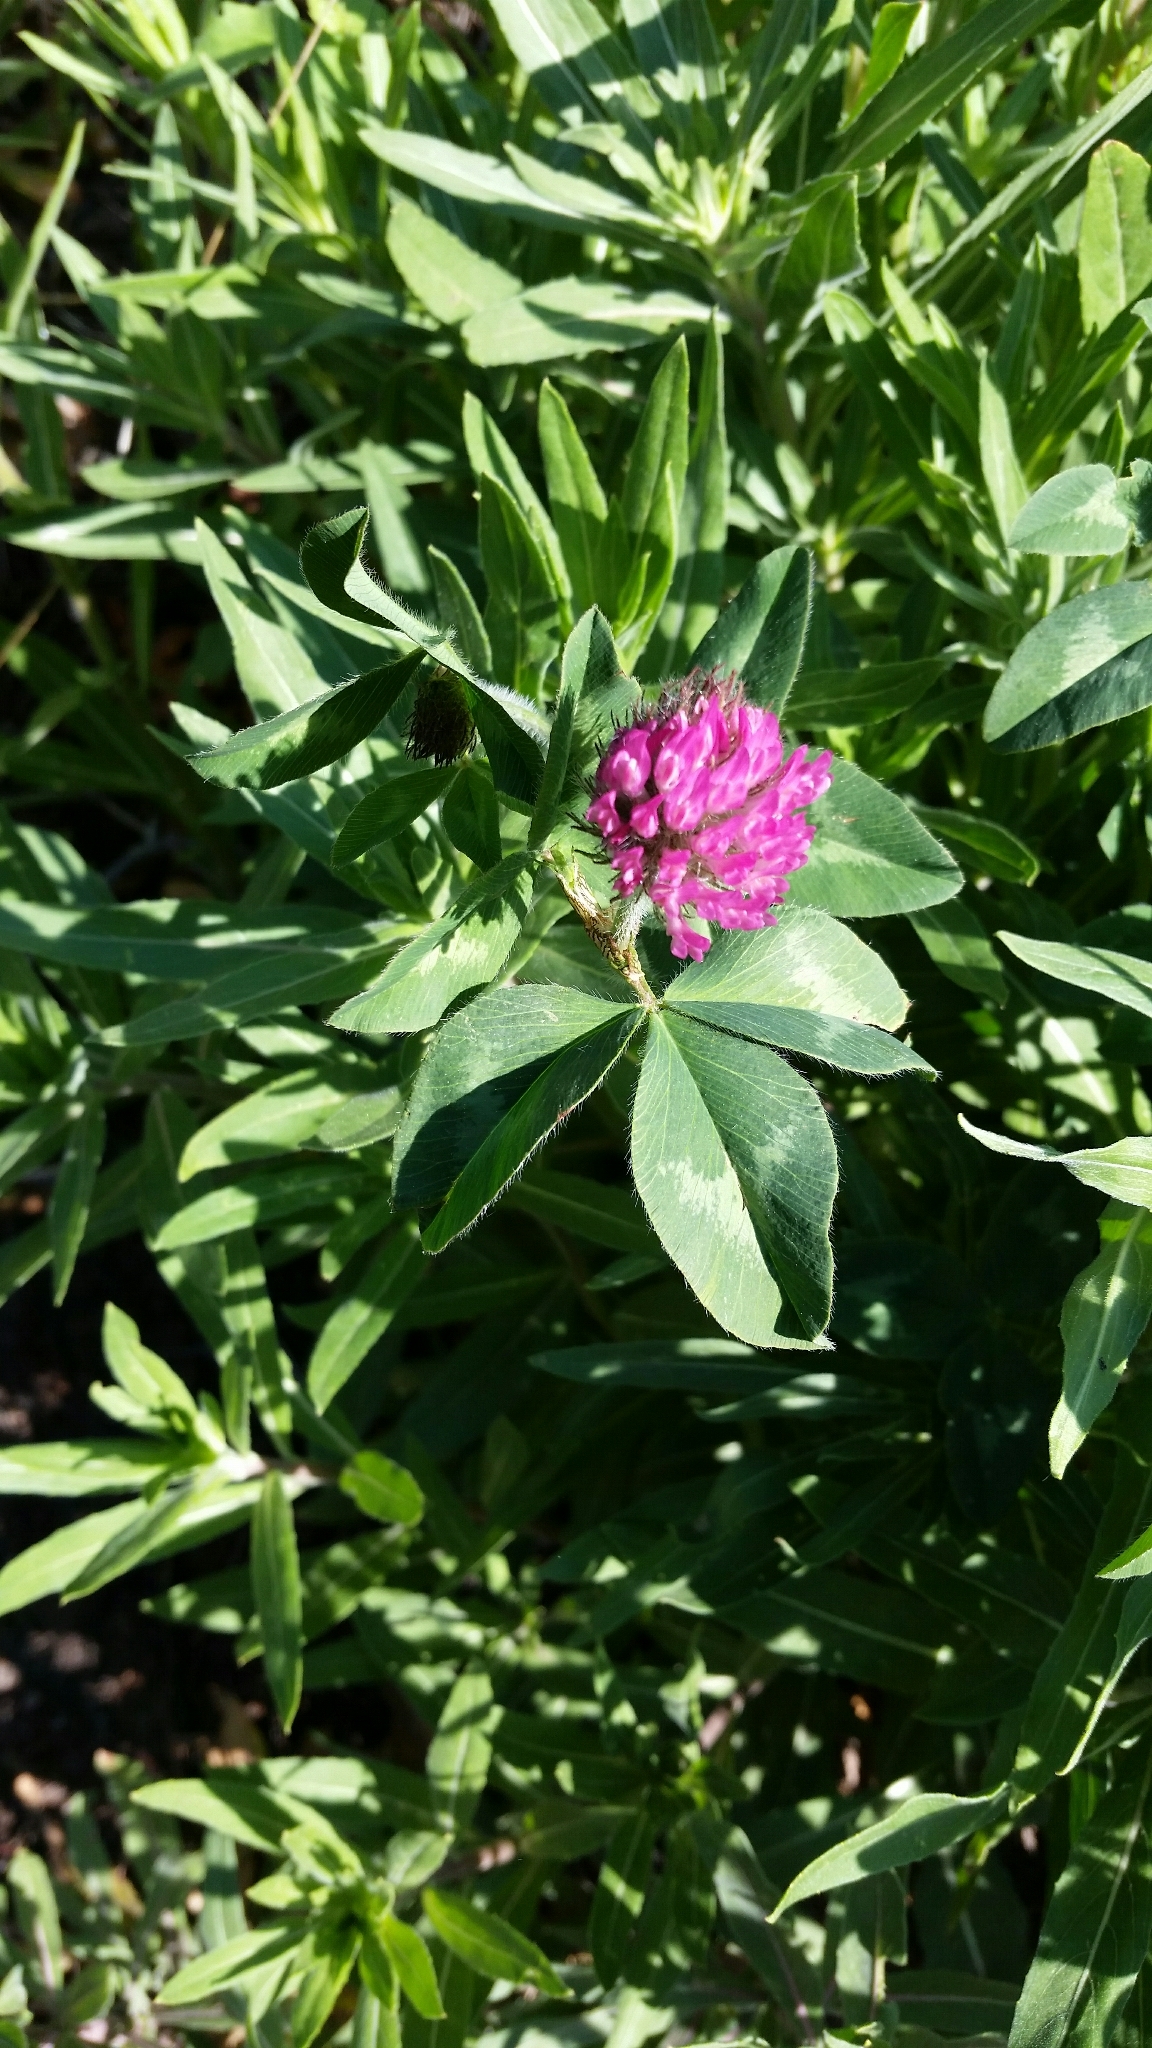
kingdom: Plantae
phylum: Tracheophyta
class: Magnoliopsida
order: Fabales
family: Fabaceae
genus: Trifolium
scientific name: Trifolium pratense
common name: Red clover
